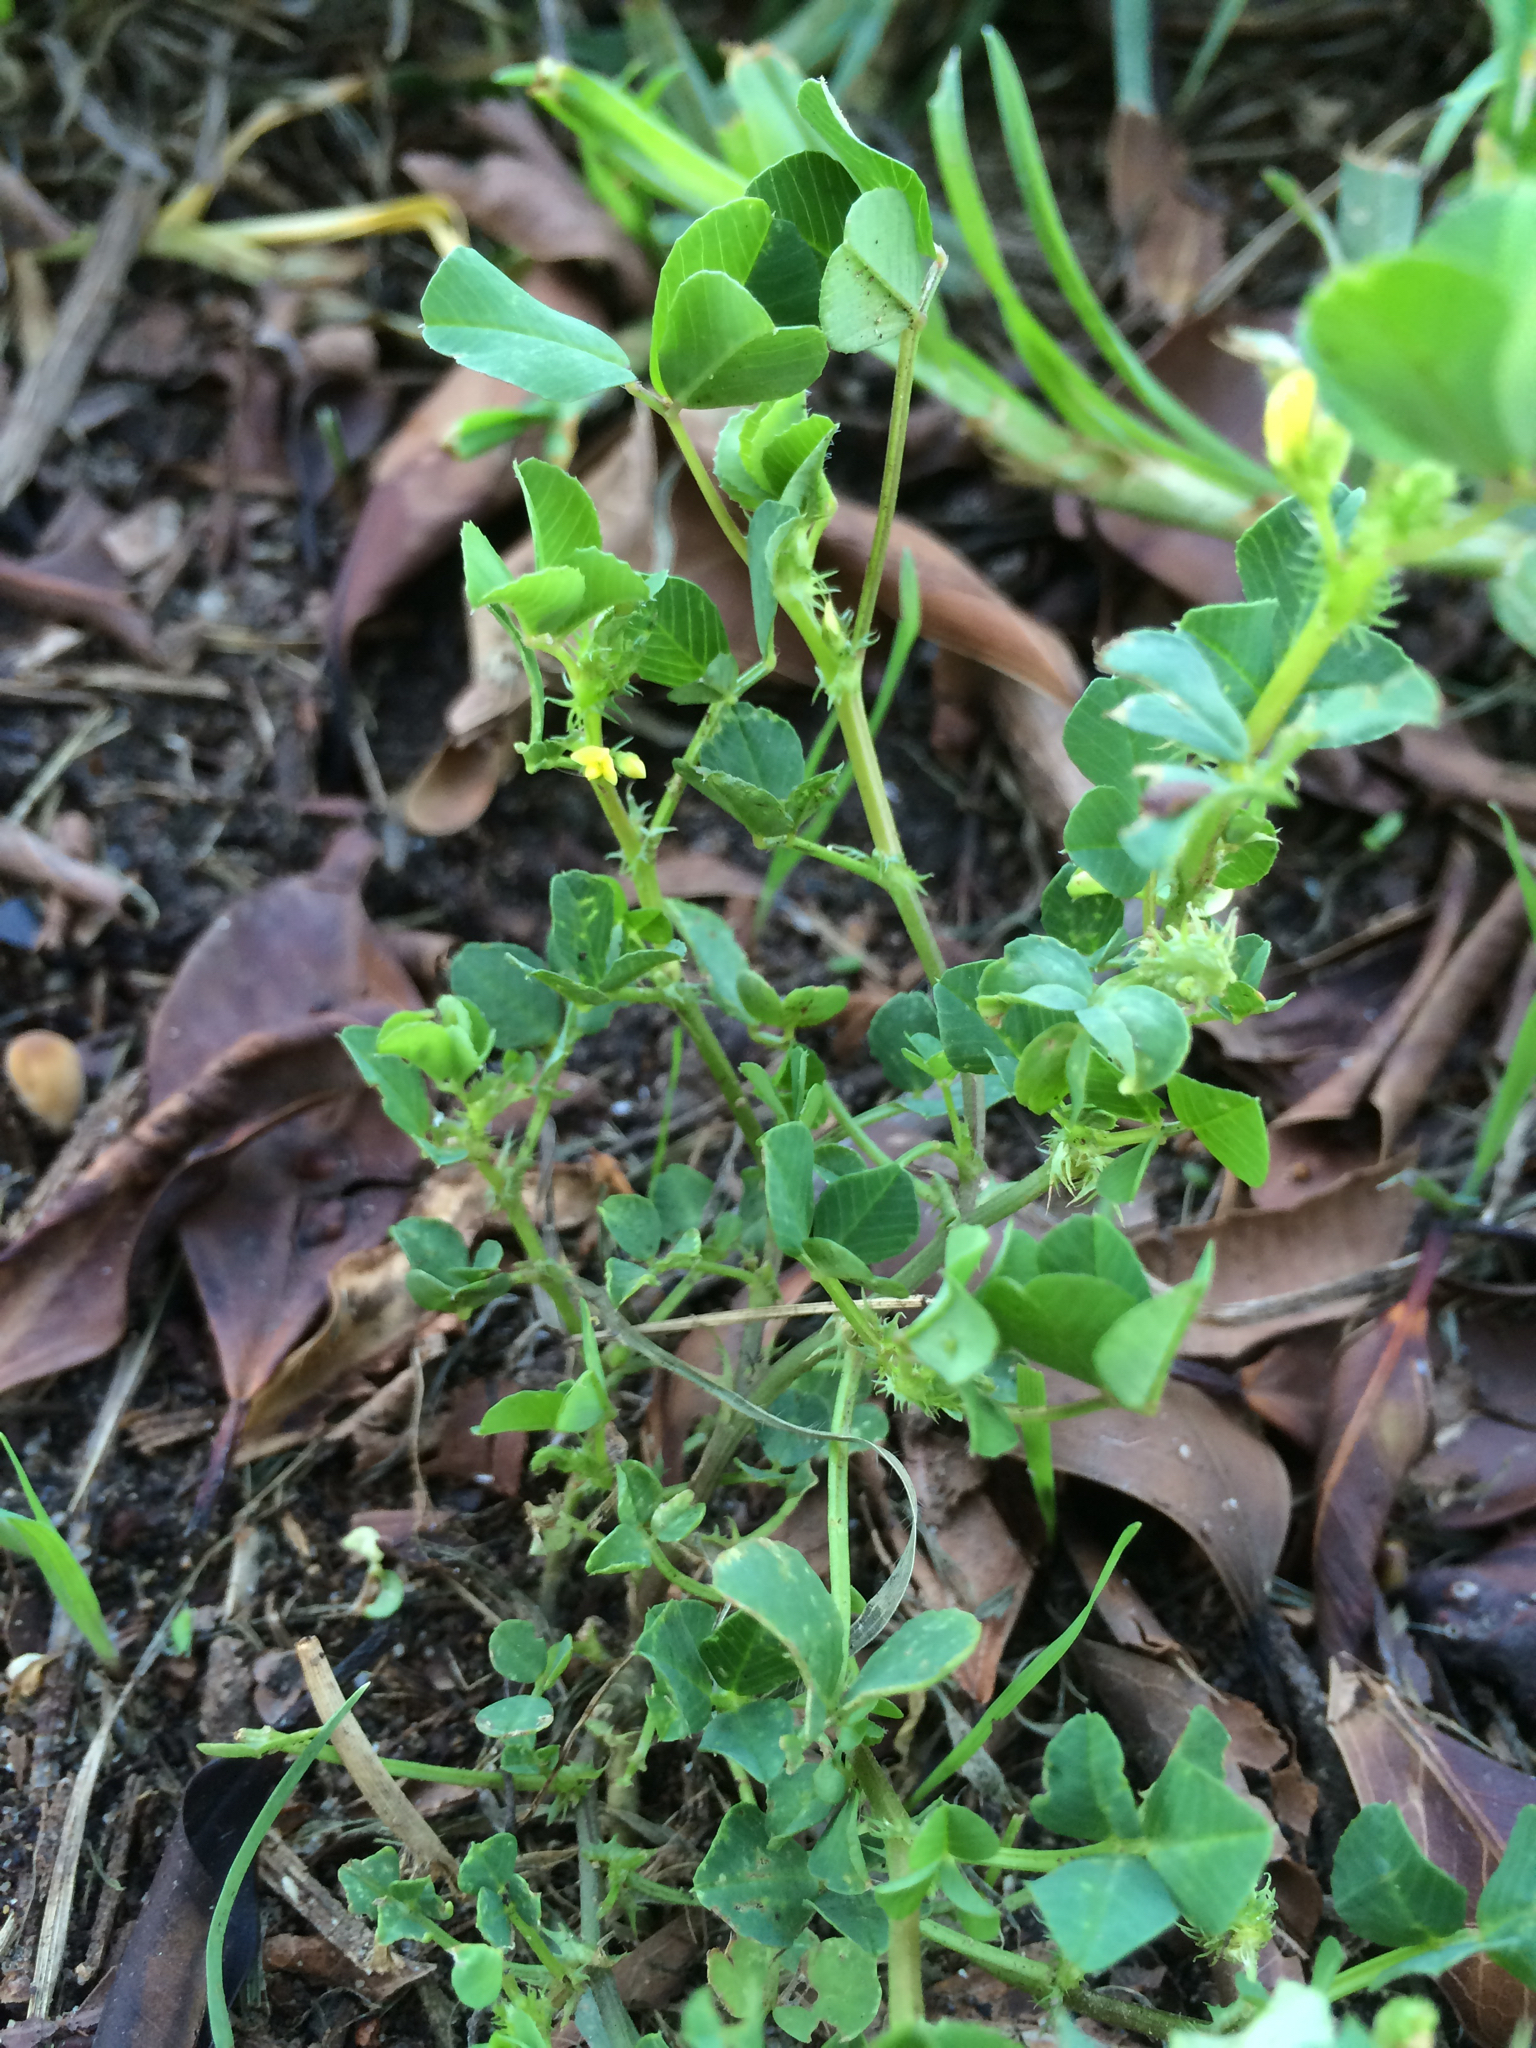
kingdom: Plantae
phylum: Tracheophyta
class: Magnoliopsida
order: Fabales
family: Fabaceae
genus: Medicago
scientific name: Medicago polymorpha
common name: Burclover
